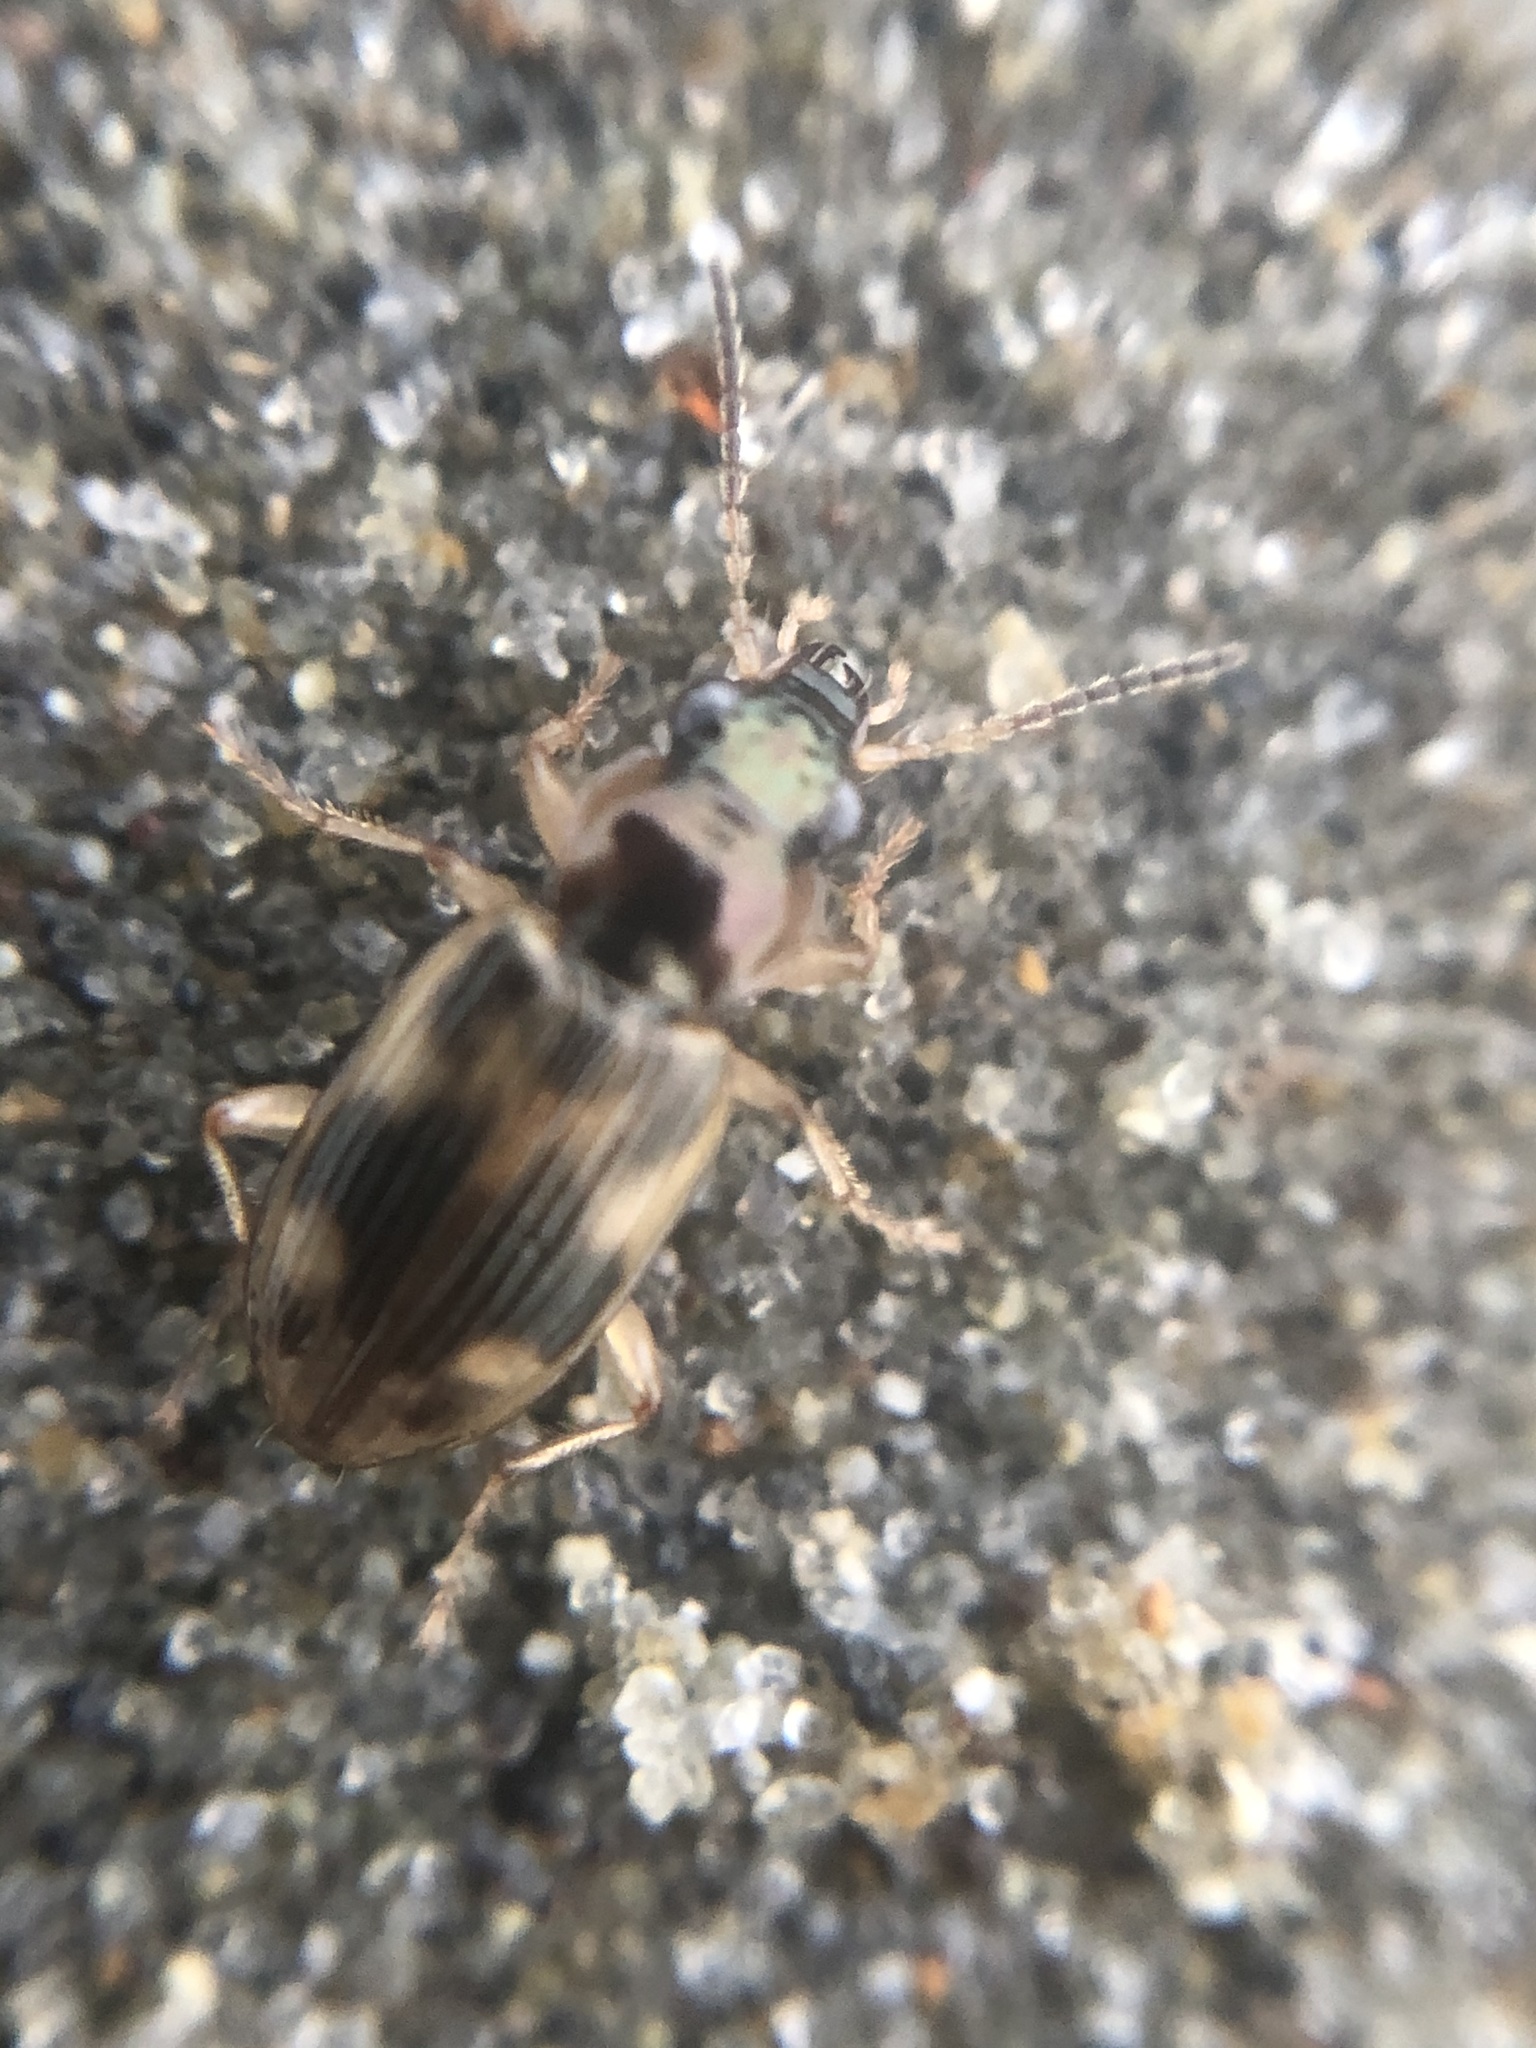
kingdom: Animalia
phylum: Arthropoda
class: Insecta
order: Coleoptera
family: Carabidae
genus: Bembidion
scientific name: Bembidion tigrinum
